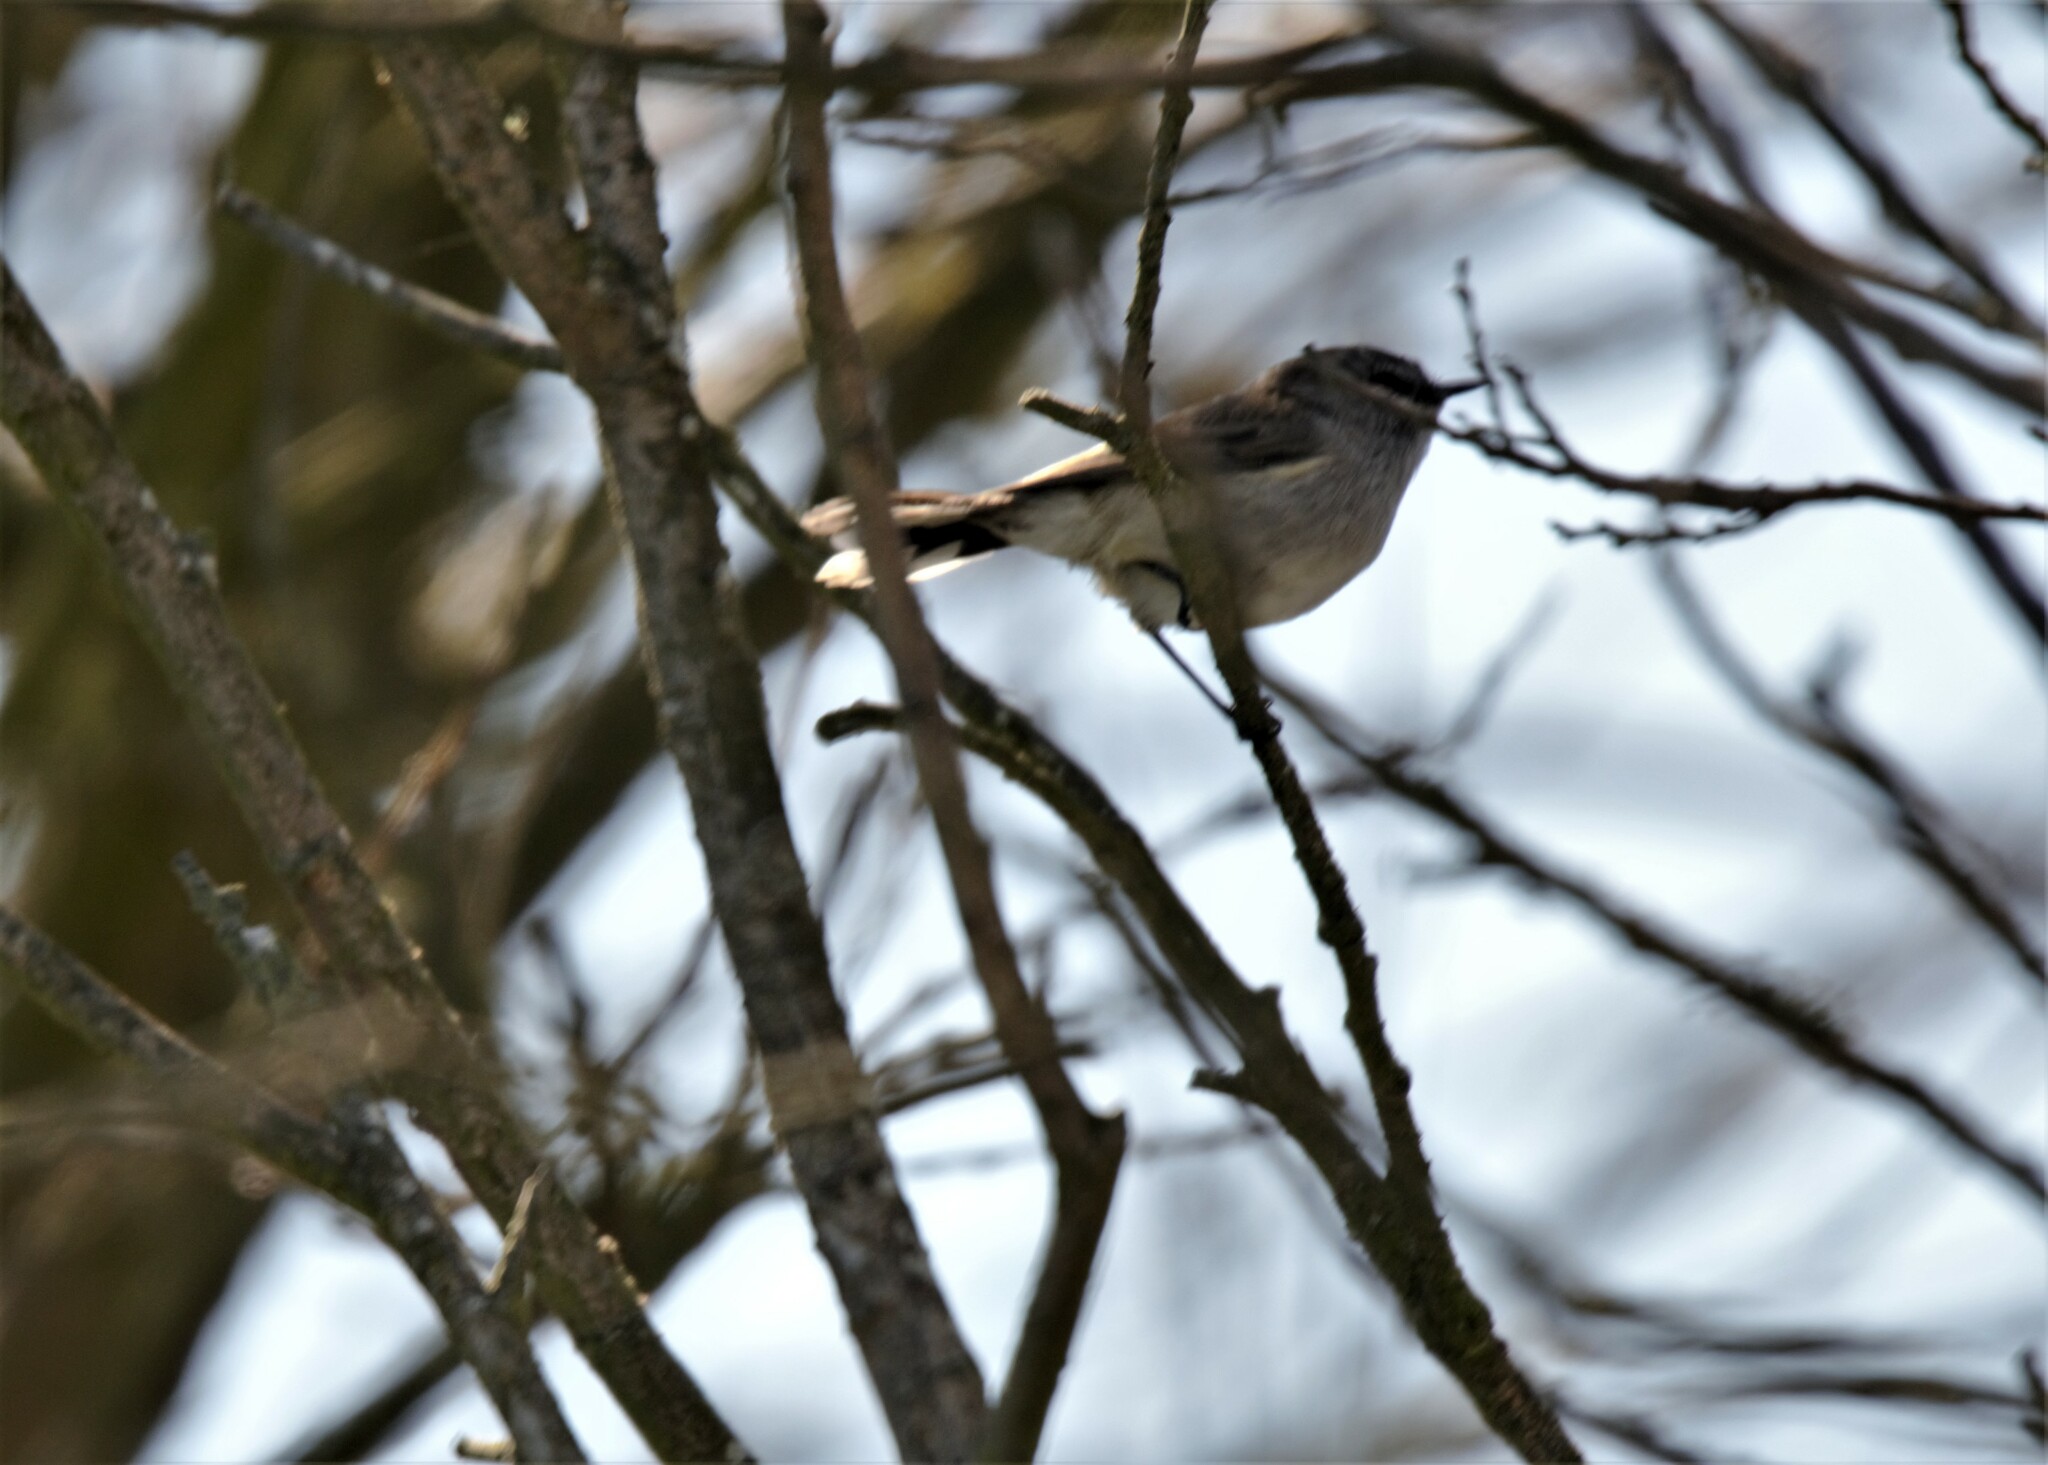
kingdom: Animalia
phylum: Chordata
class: Aves
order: Passeriformes
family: Acanthizidae
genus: Gerygone
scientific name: Gerygone igata
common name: Grey gerygone
